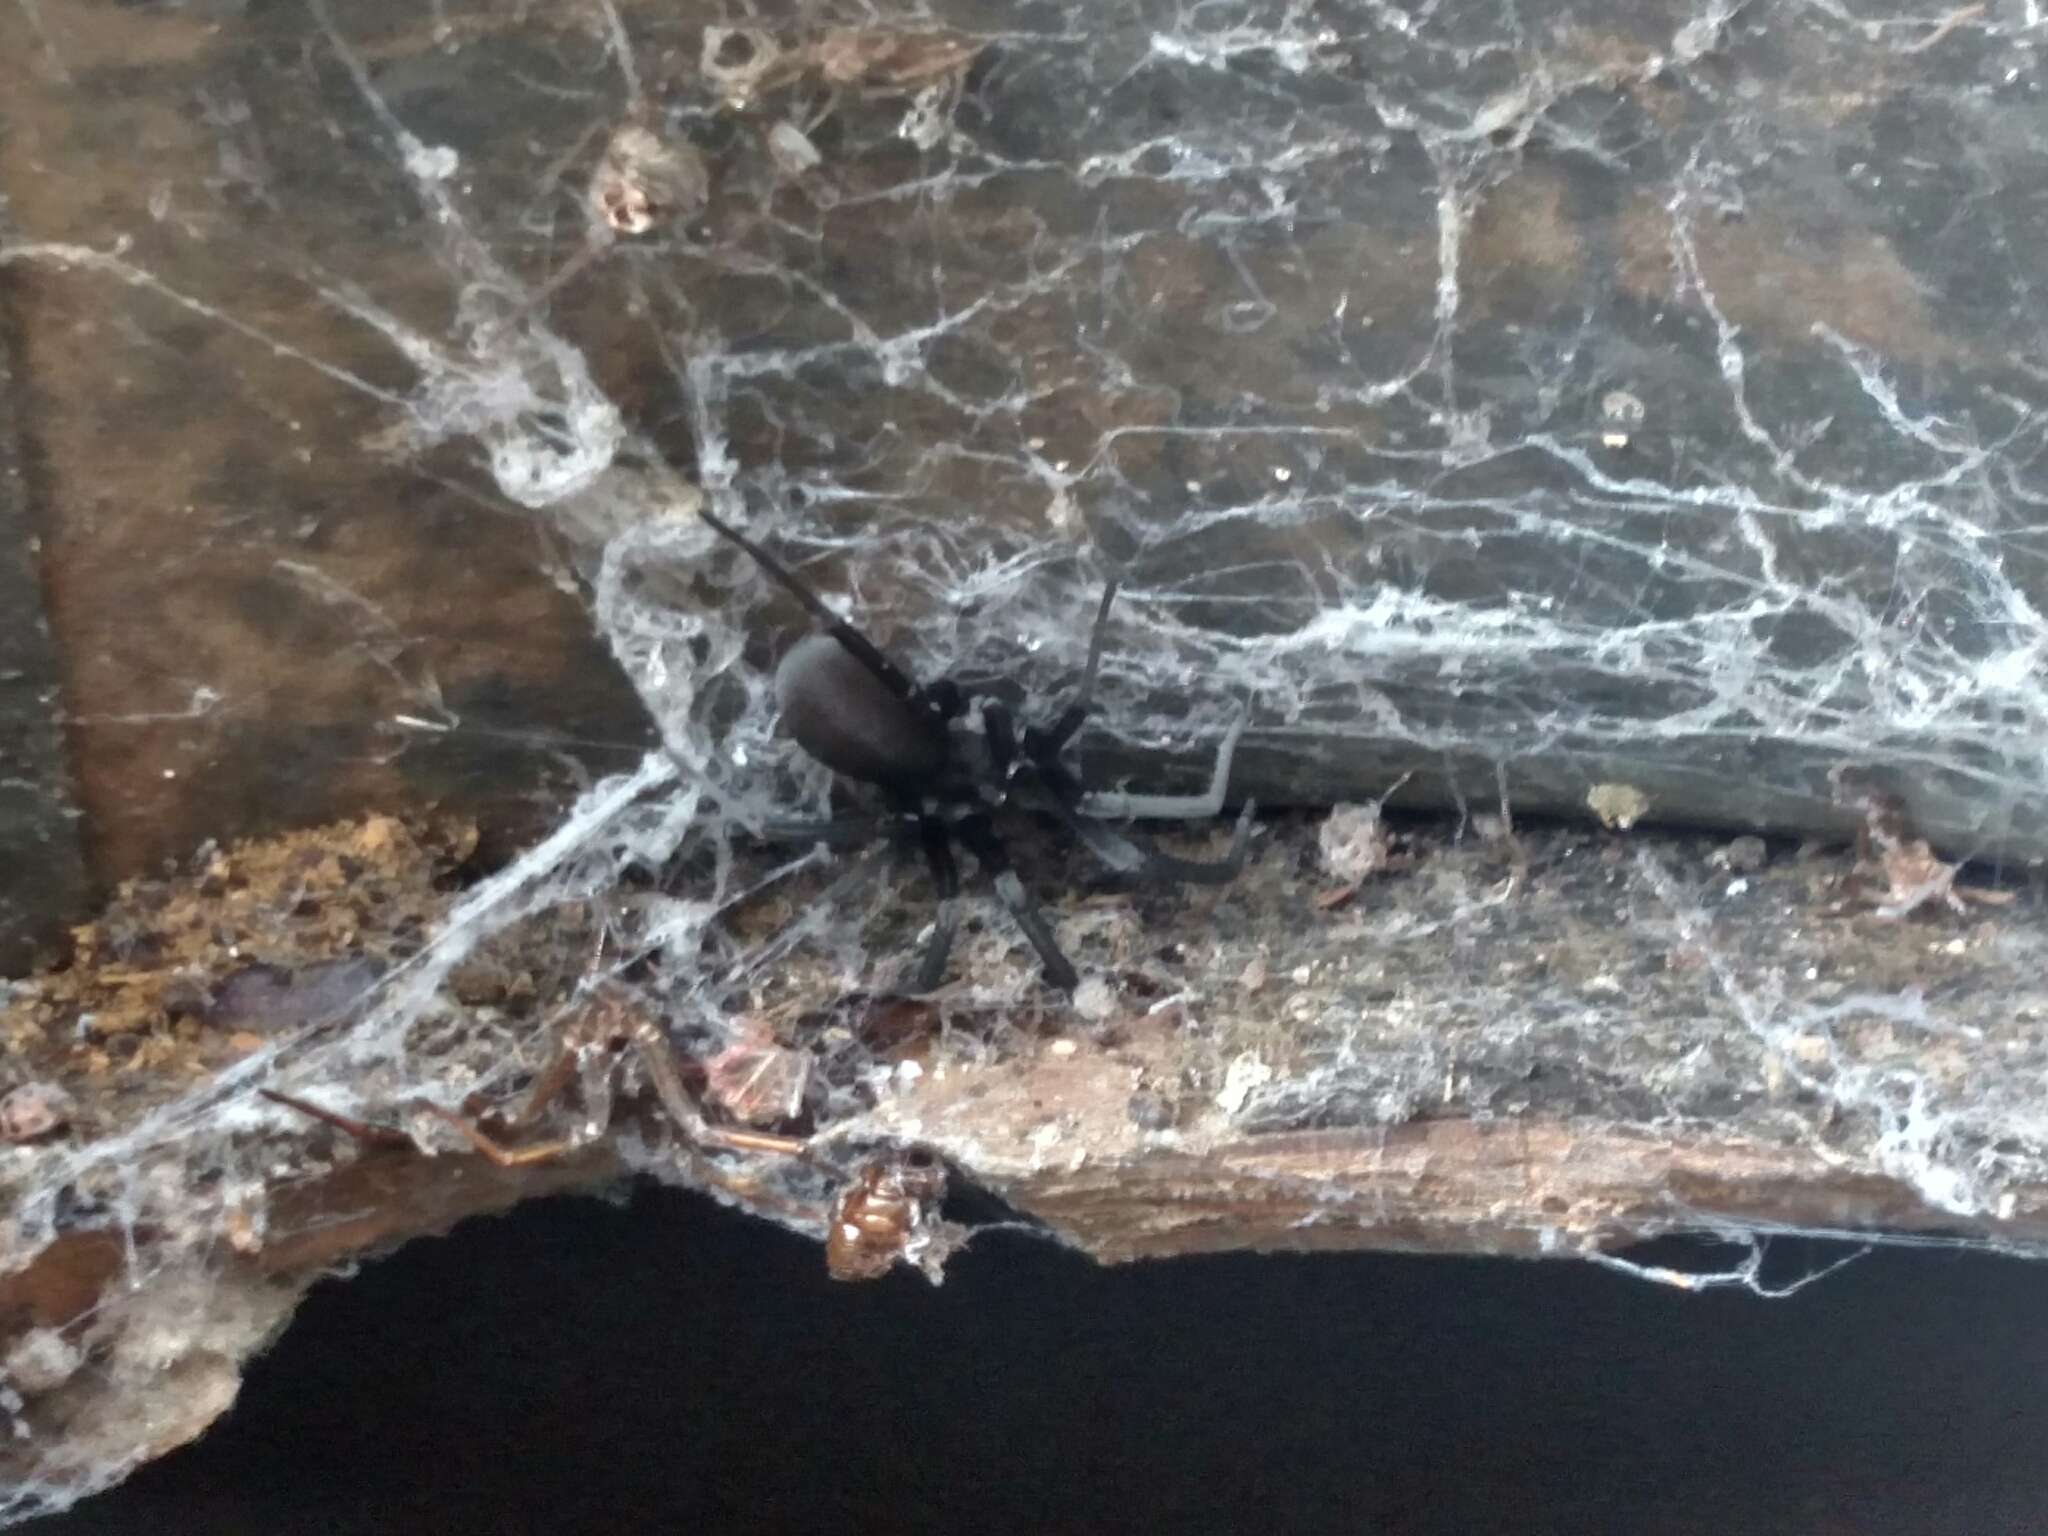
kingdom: Animalia
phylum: Arthropoda
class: Arachnida
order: Araneae
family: Filistatidae
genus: Kukulcania
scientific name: Kukulcania hibernalis
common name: Crevice weaver
